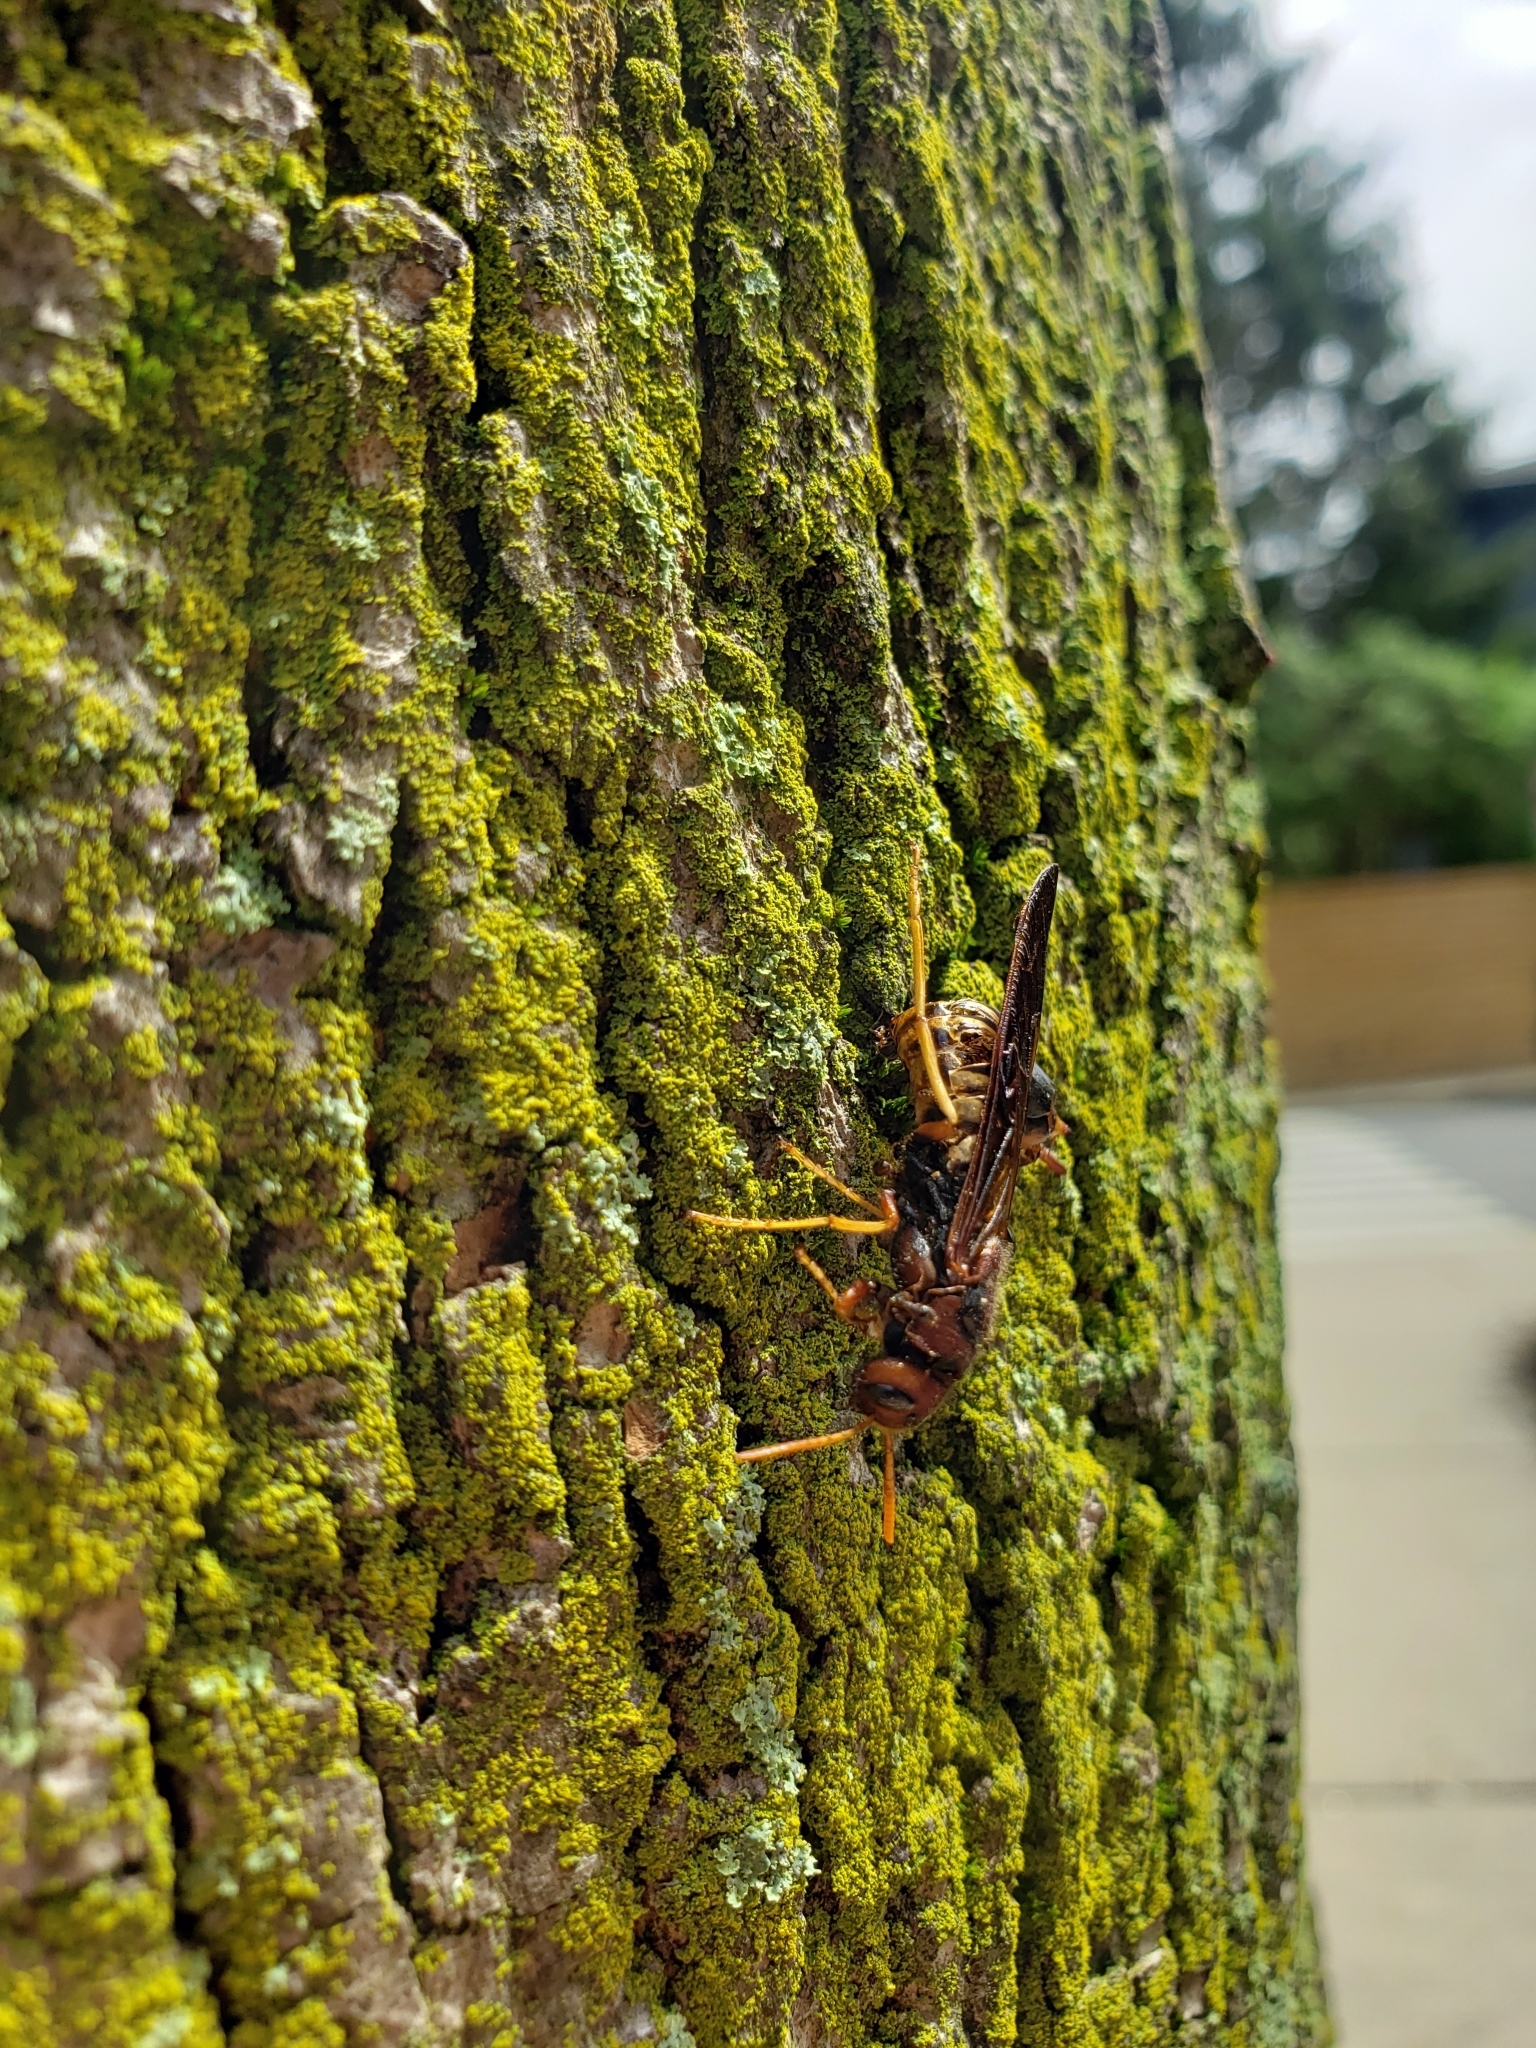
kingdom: Animalia
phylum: Arthropoda
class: Insecta
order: Hymenoptera
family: Siricidae
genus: Tremex
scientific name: Tremex columba
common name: Wasp
